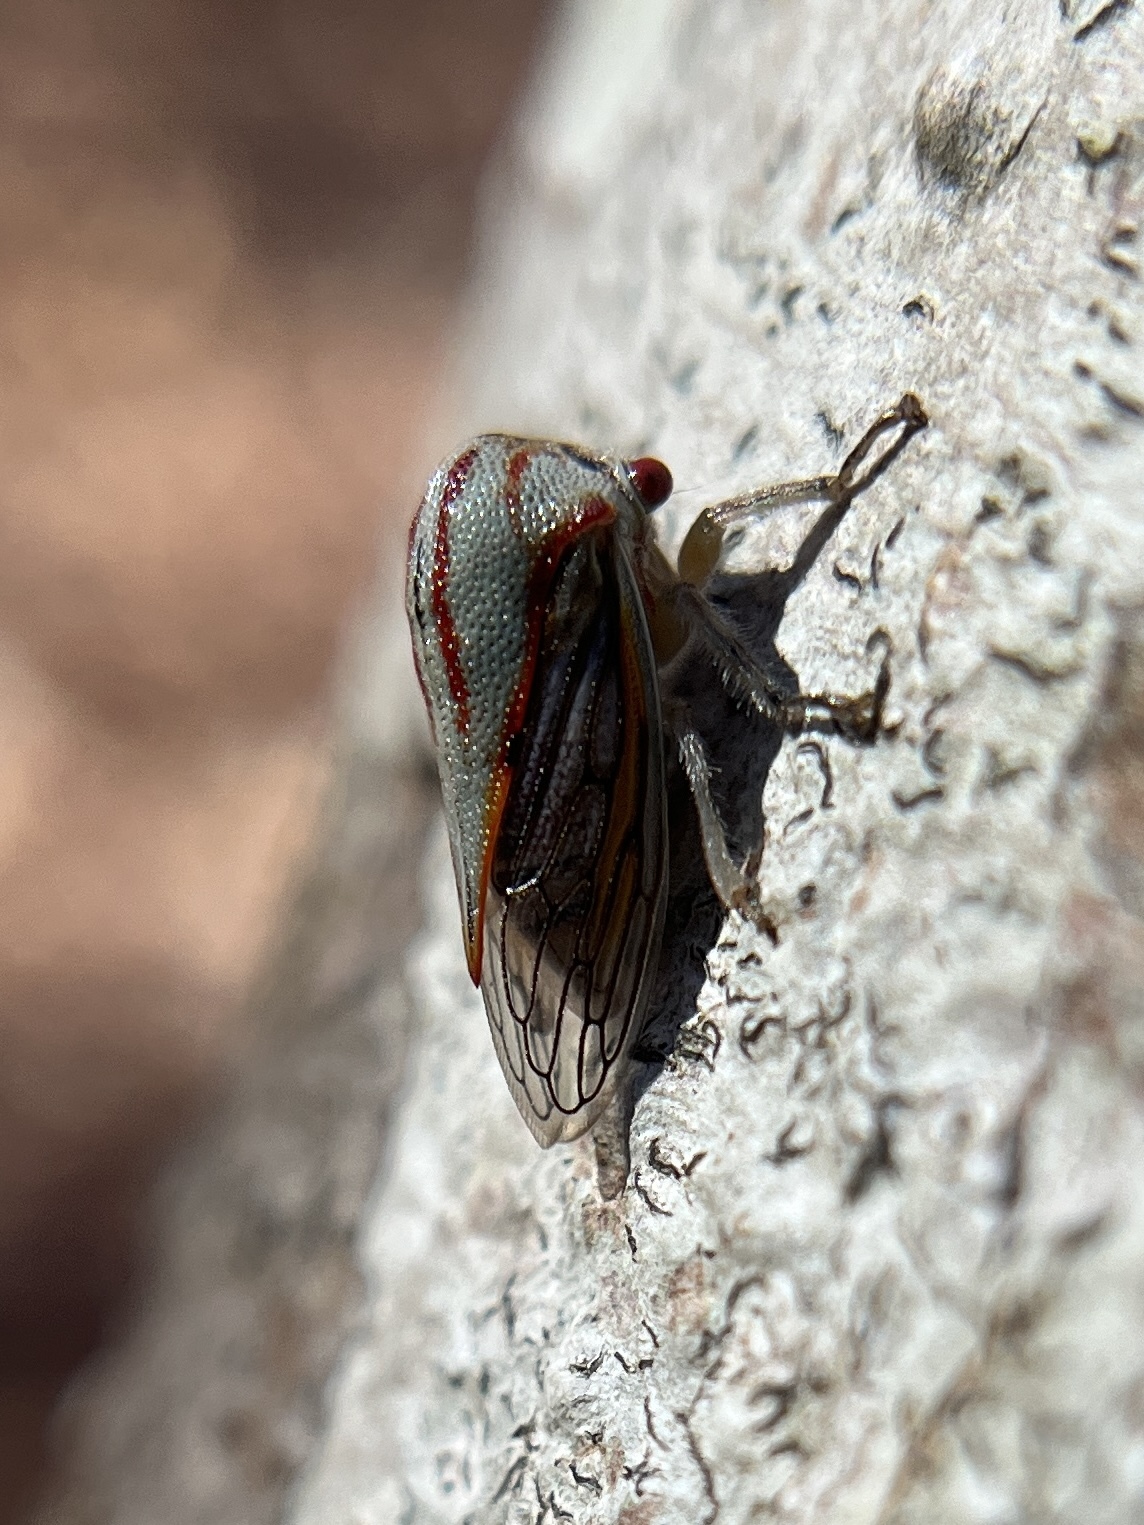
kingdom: Animalia
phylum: Arthropoda
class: Insecta
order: Hemiptera
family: Membracidae
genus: Platycotis
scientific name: Platycotis vittatus
